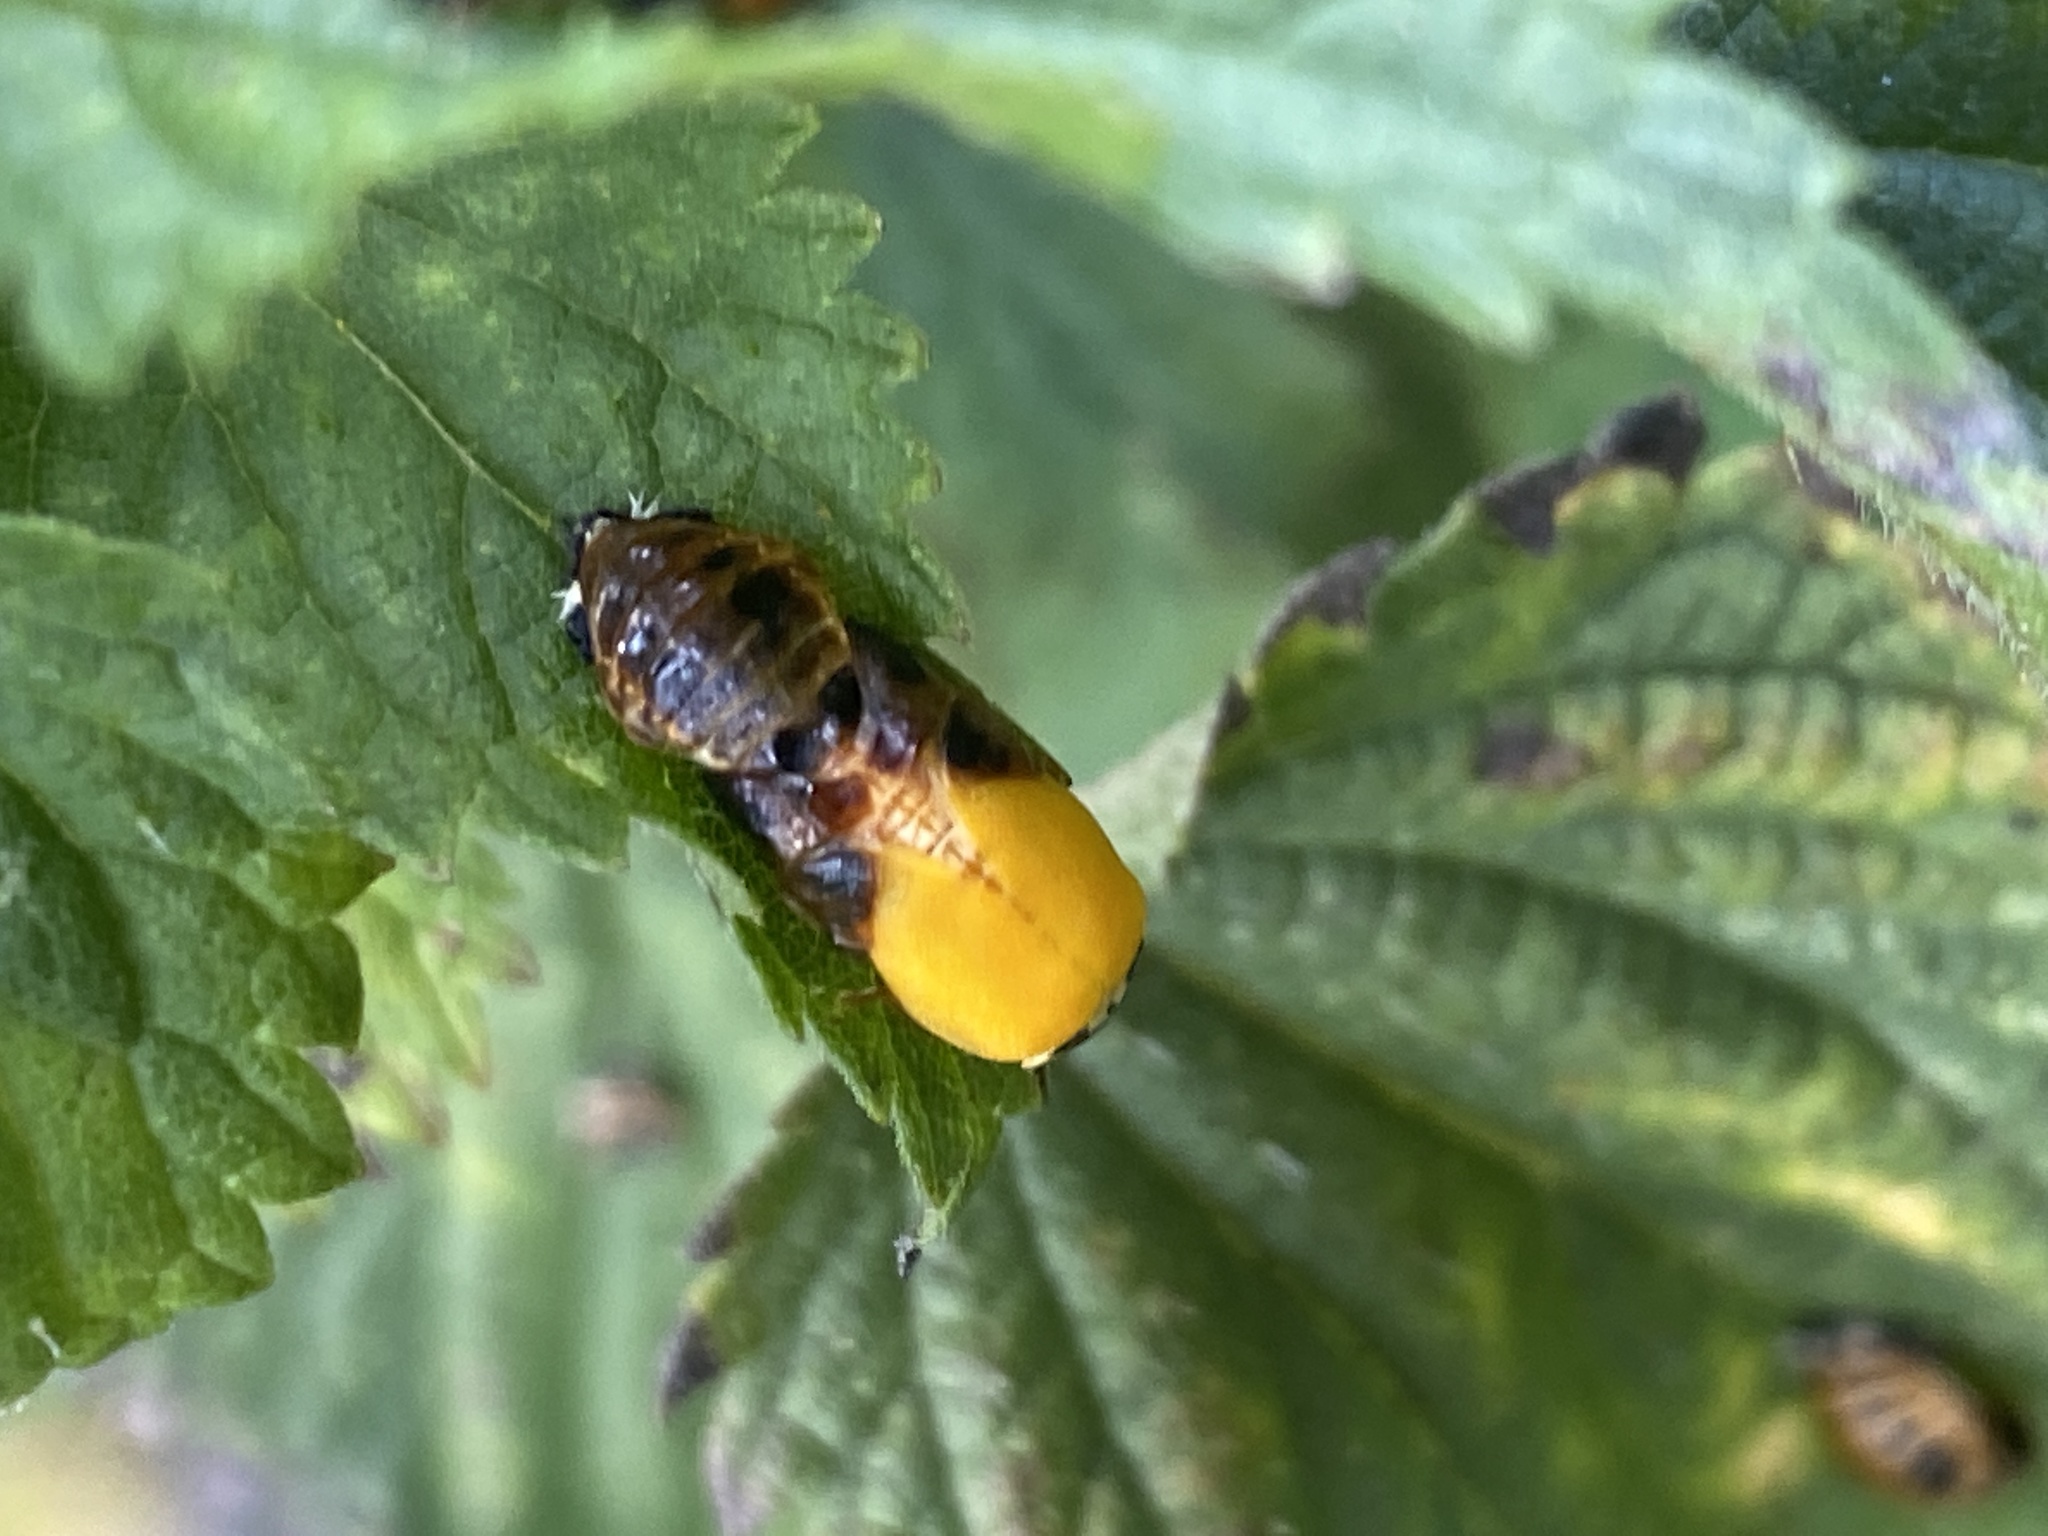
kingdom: Animalia
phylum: Arthropoda
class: Insecta
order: Coleoptera
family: Coccinellidae
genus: Harmonia
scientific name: Harmonia axyridis
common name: Harlequin ladybird
